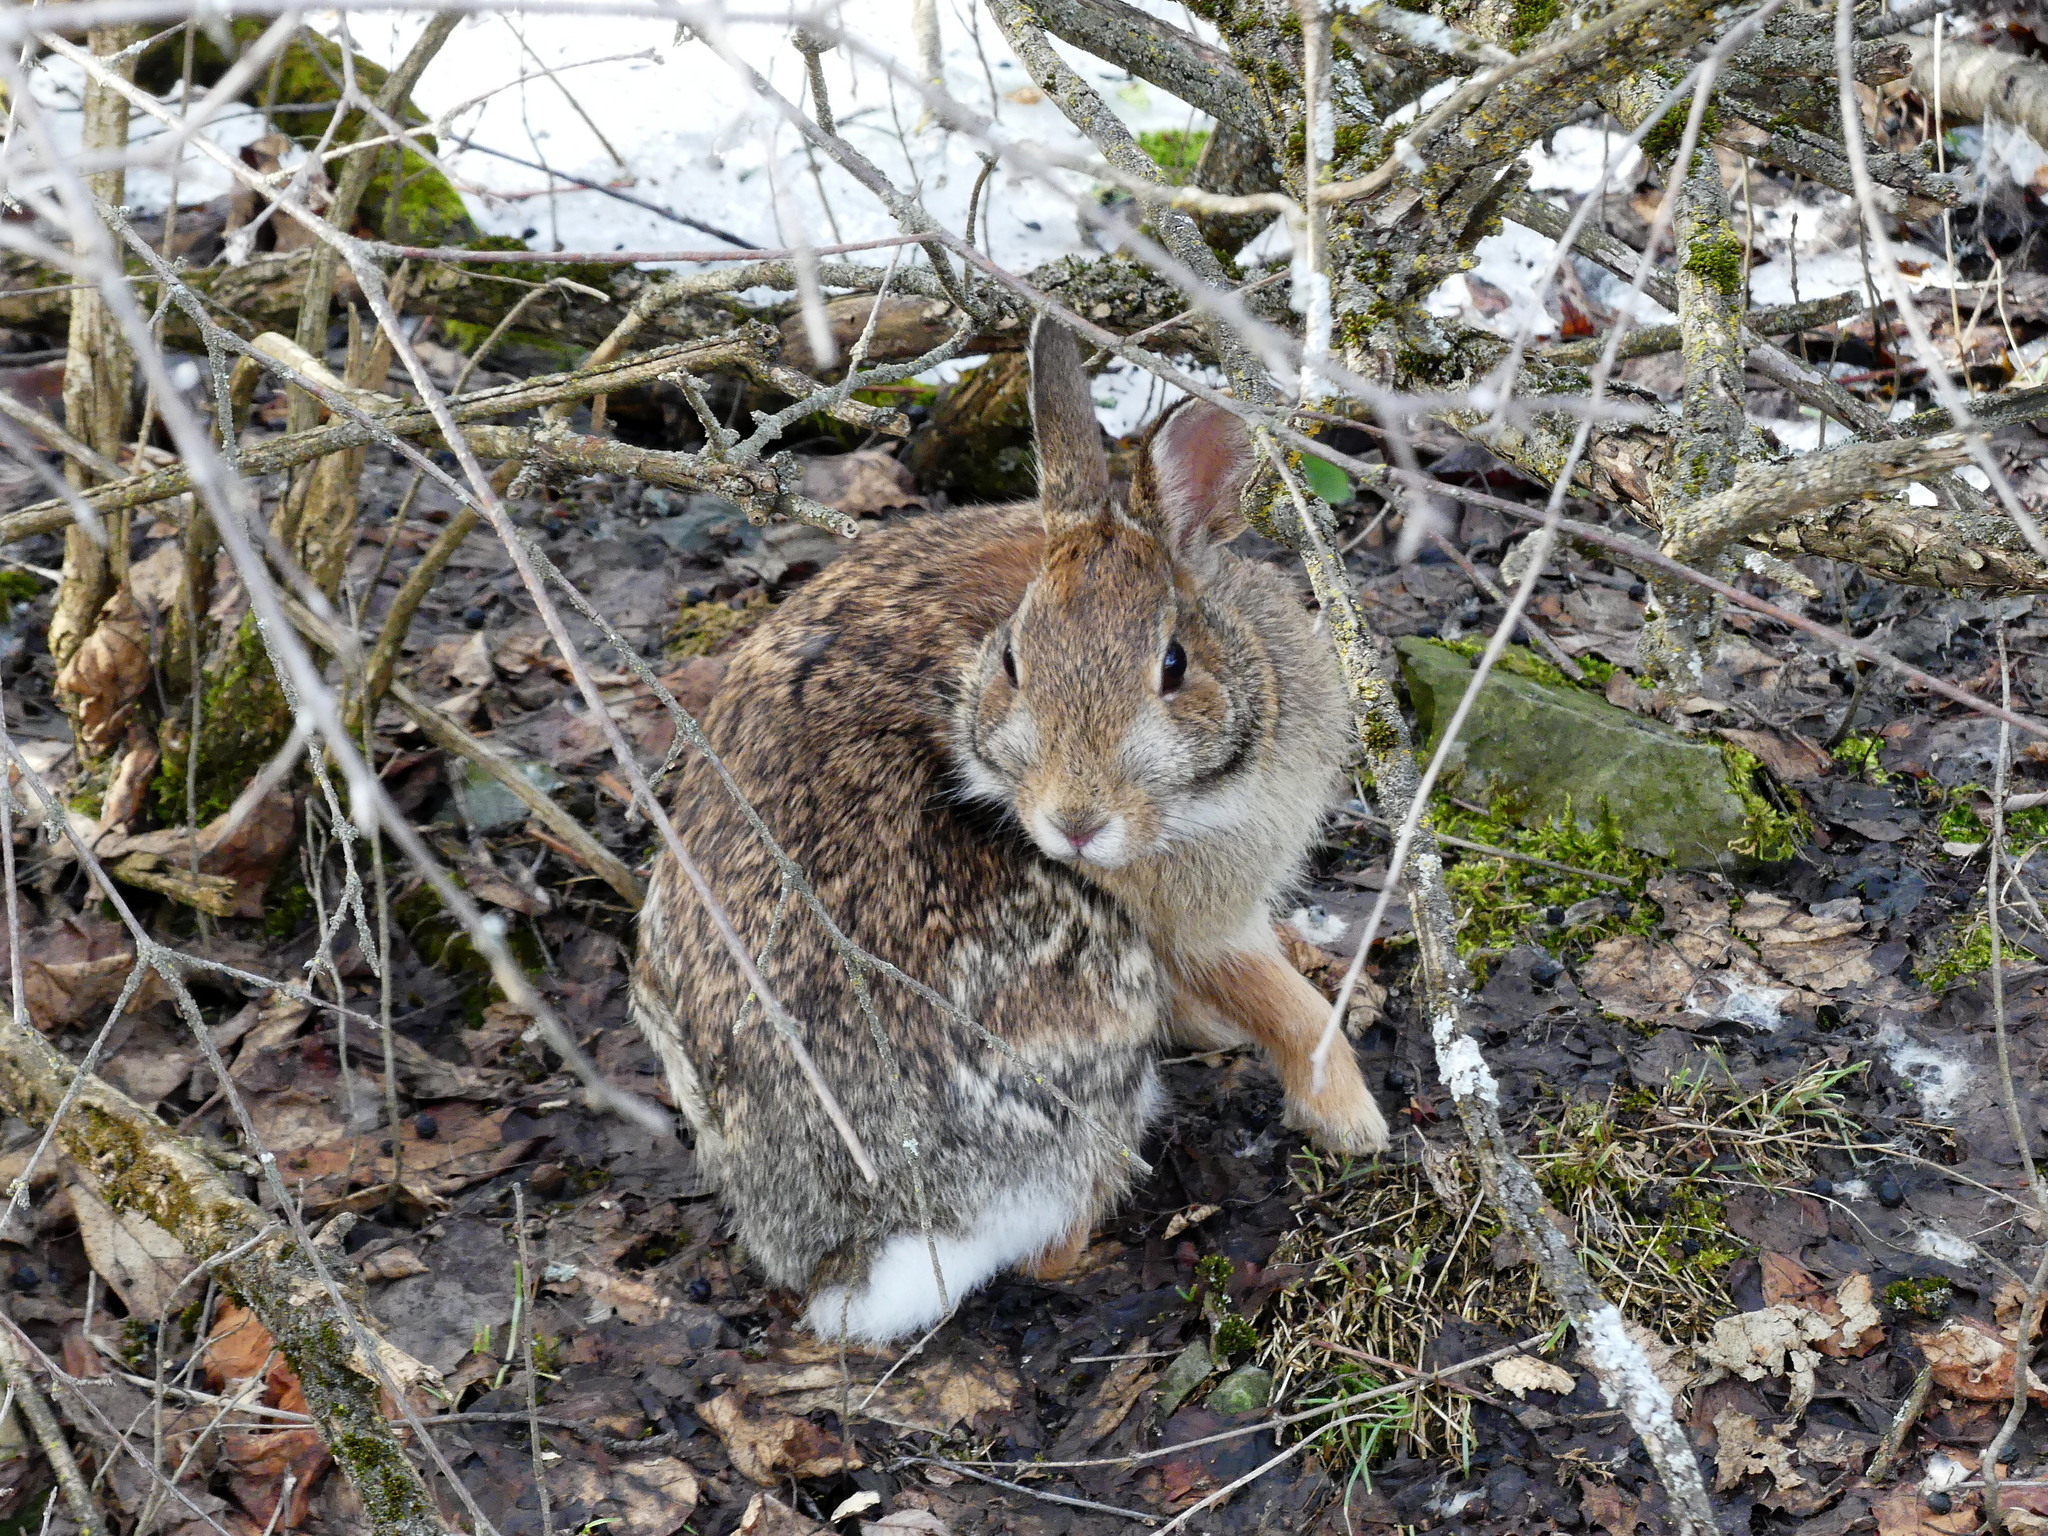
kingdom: Animalia
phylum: Chordata
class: Mammalia
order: Lagomorpha
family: Leporidae
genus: Sylvilagus
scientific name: Sylvilagus floridanus
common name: Eastern cottontail
